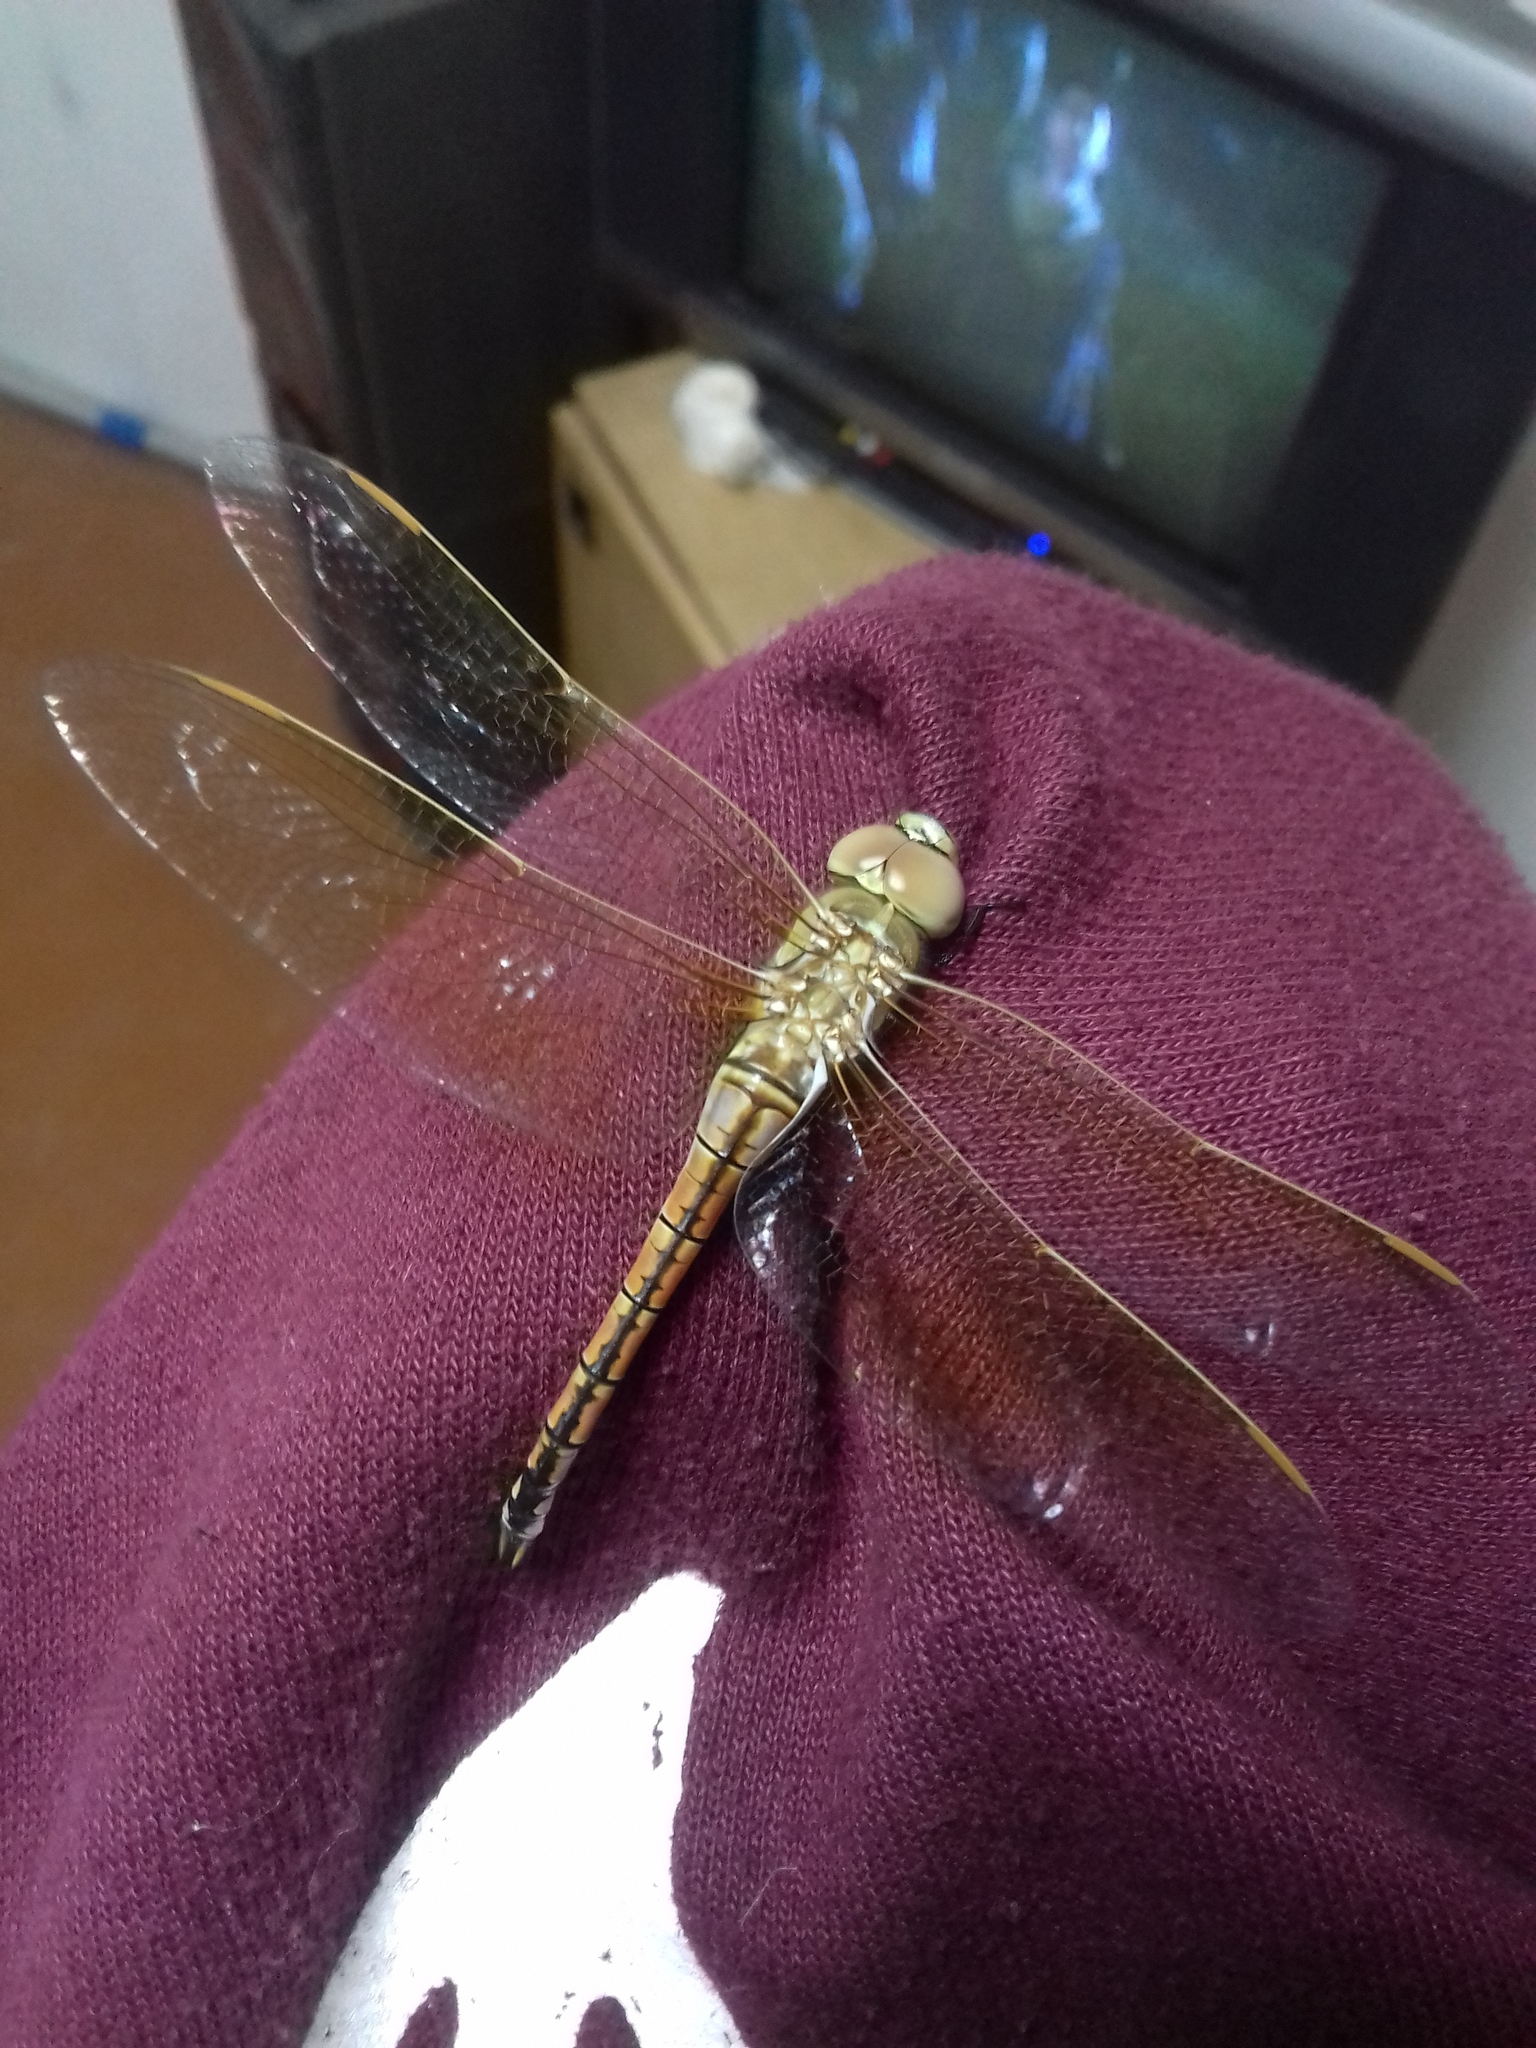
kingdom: Animalia
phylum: Arthropoda
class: Insecta
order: Odonata
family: Aeshnidae
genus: Anax
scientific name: Anax ephippiger
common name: Vagrant emperor
